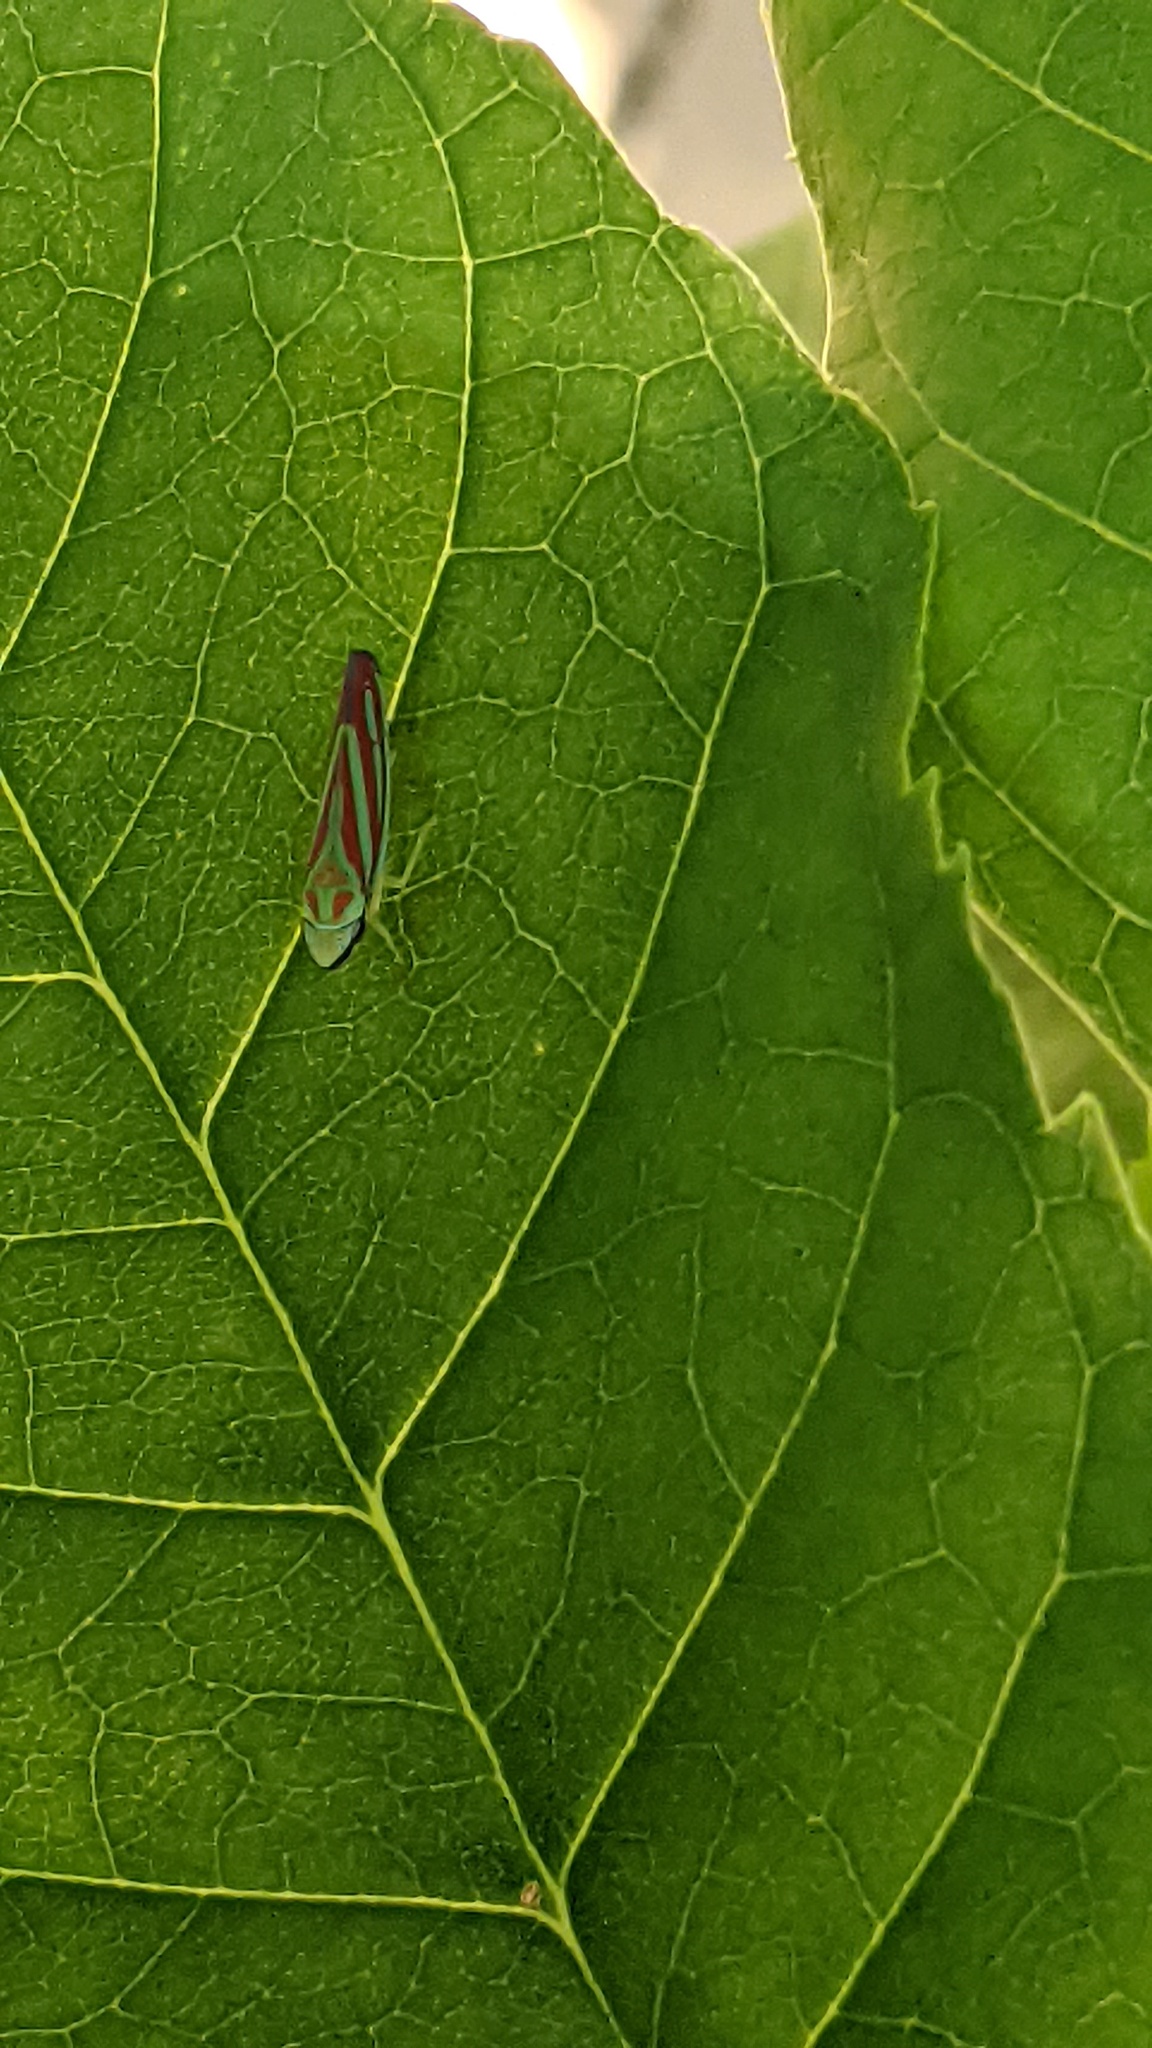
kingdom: Animalia
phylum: Arthropoda
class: Insecta
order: Hemiptera
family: Cicadellidae
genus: Graphocephala
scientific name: Graphocephala coccinea
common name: Candy-striped leafhopper
